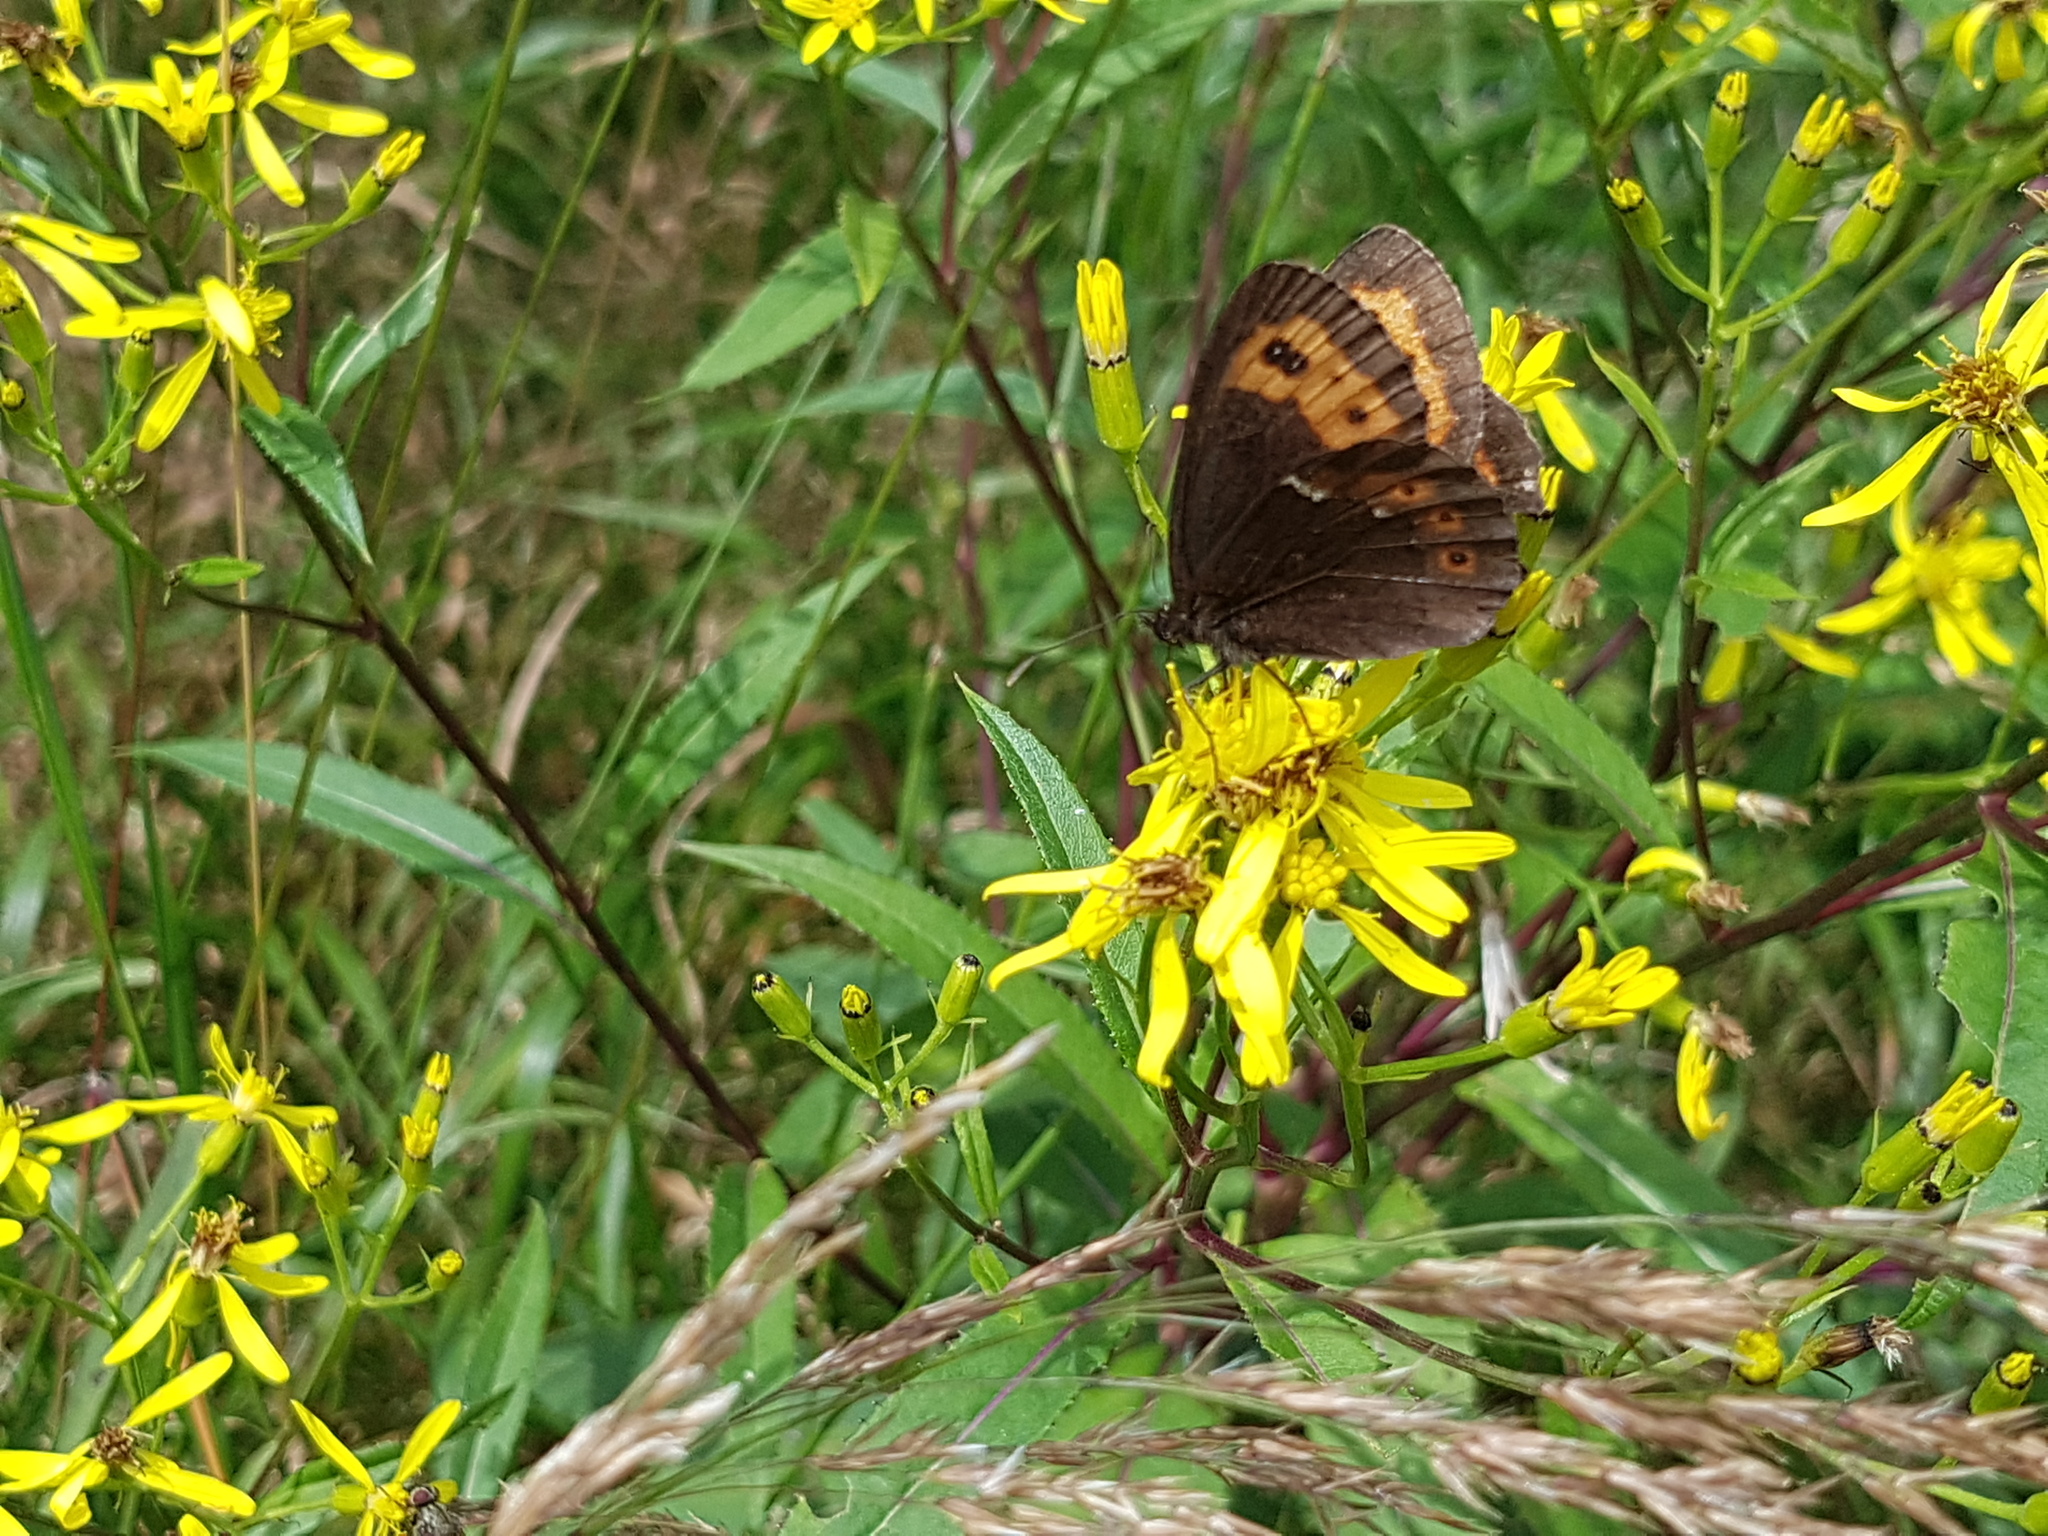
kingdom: Animalia
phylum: Arthropoda
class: Insecta
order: Lepidoptera
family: Nymphalidae
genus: Erebia
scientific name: Erebia ligea
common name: Arran brown
